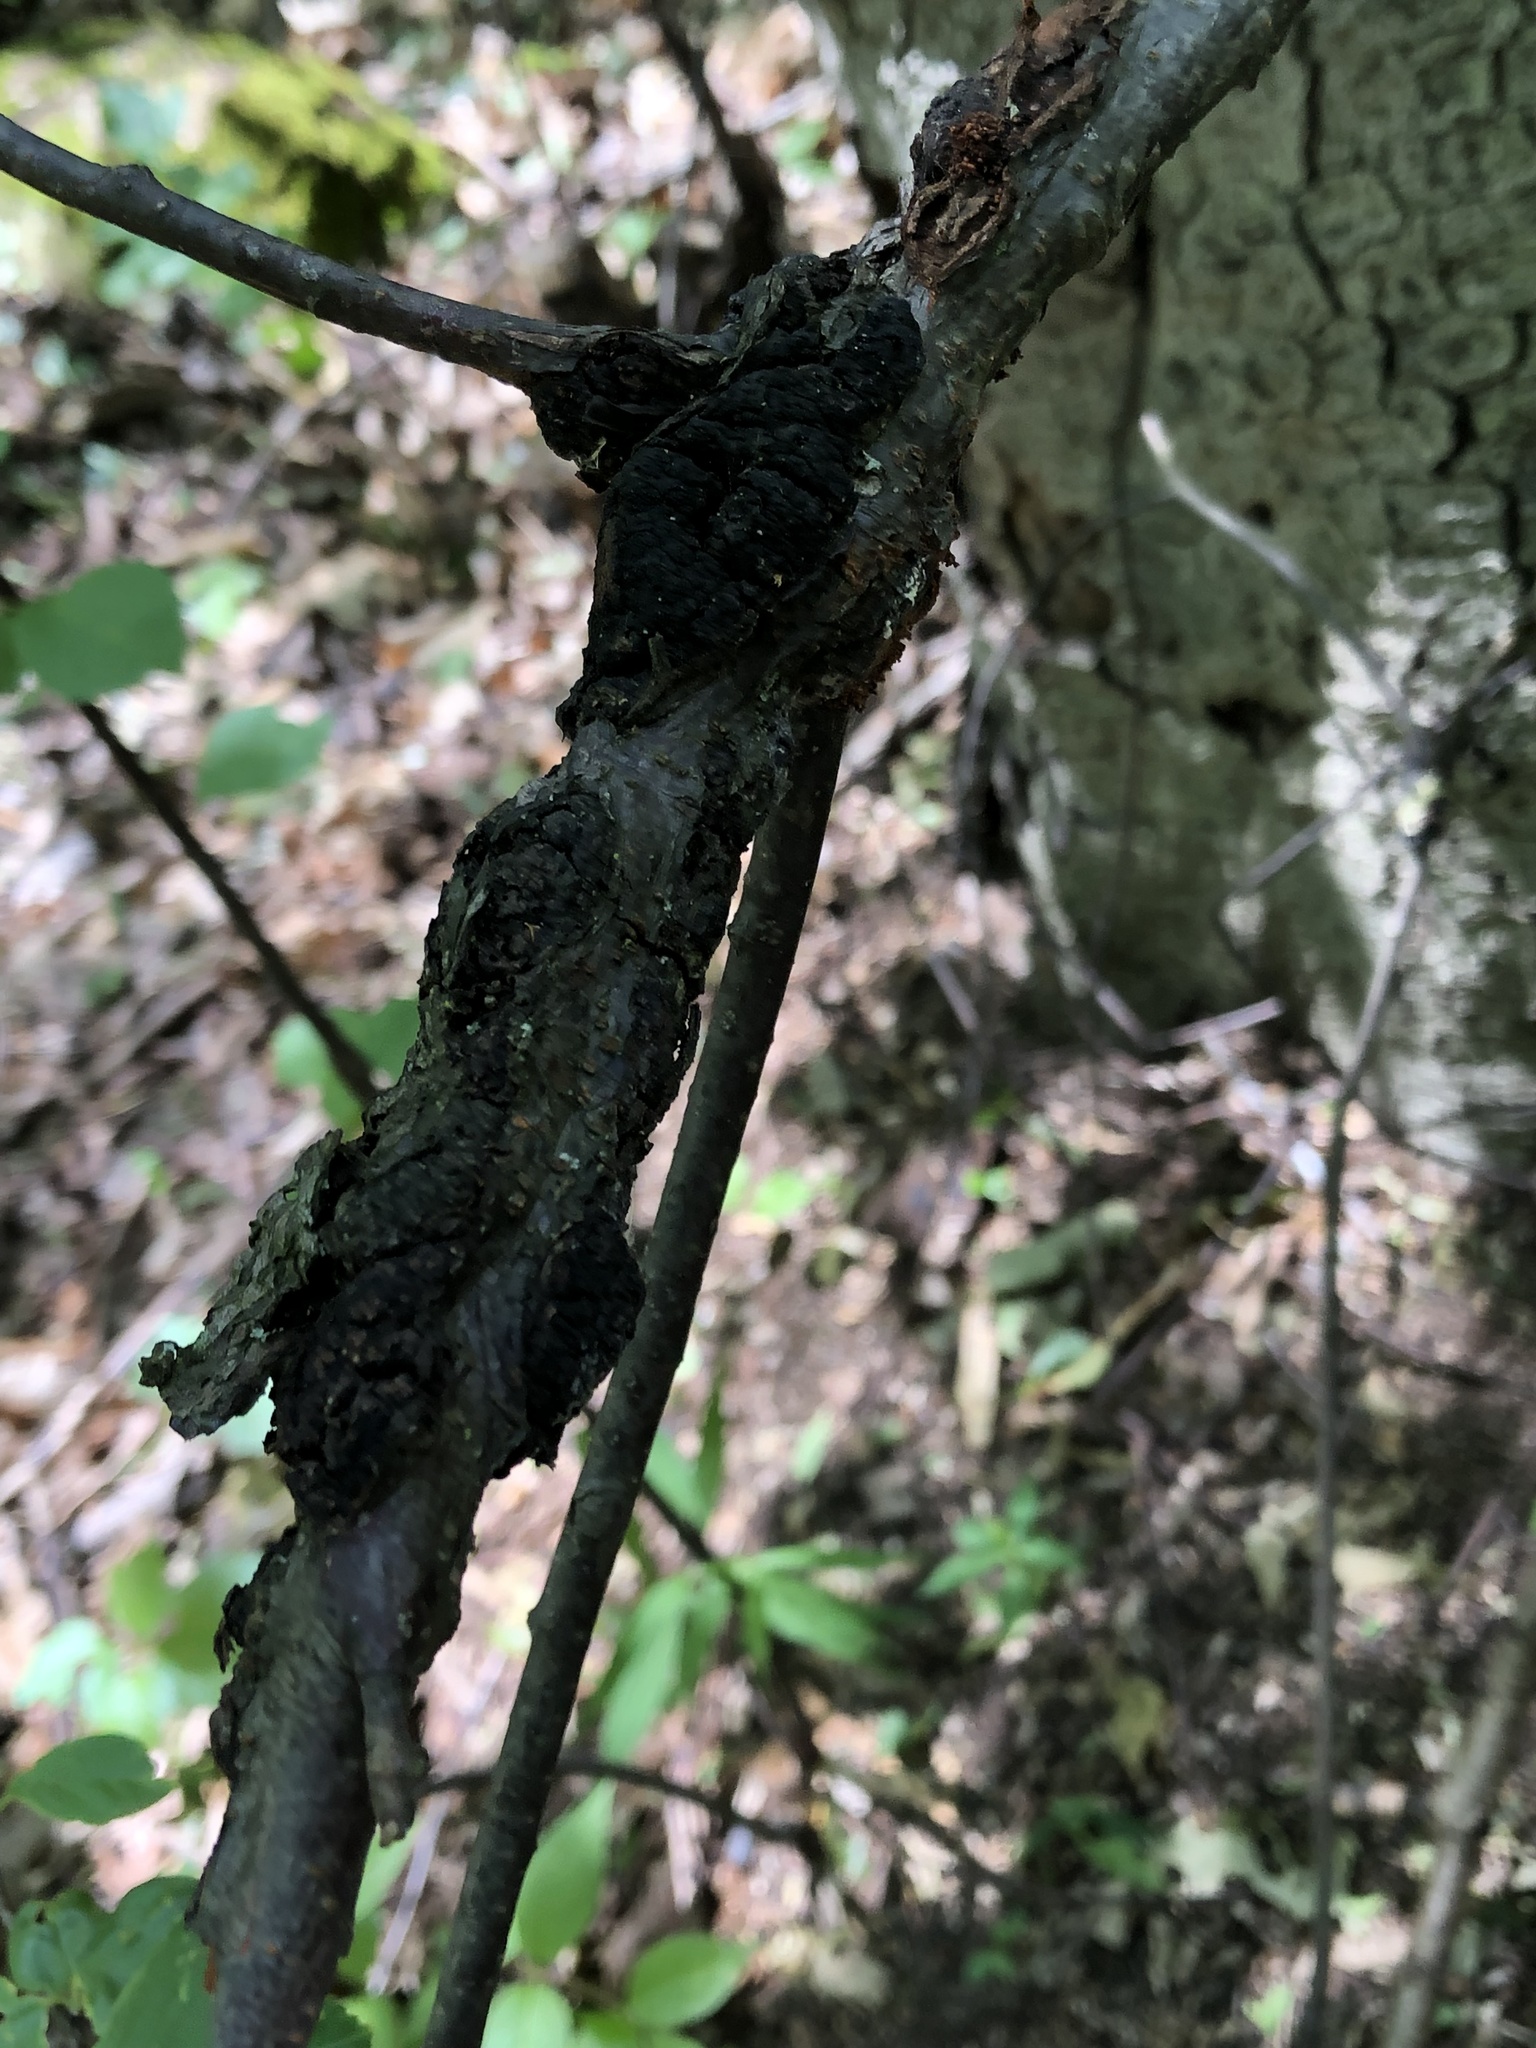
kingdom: Fungi
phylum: Ascomycota
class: Dothideomycetes
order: Venturiales
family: Venturiaceae
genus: Apiosporina
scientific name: Apiosporina morbosa
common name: Black knot
